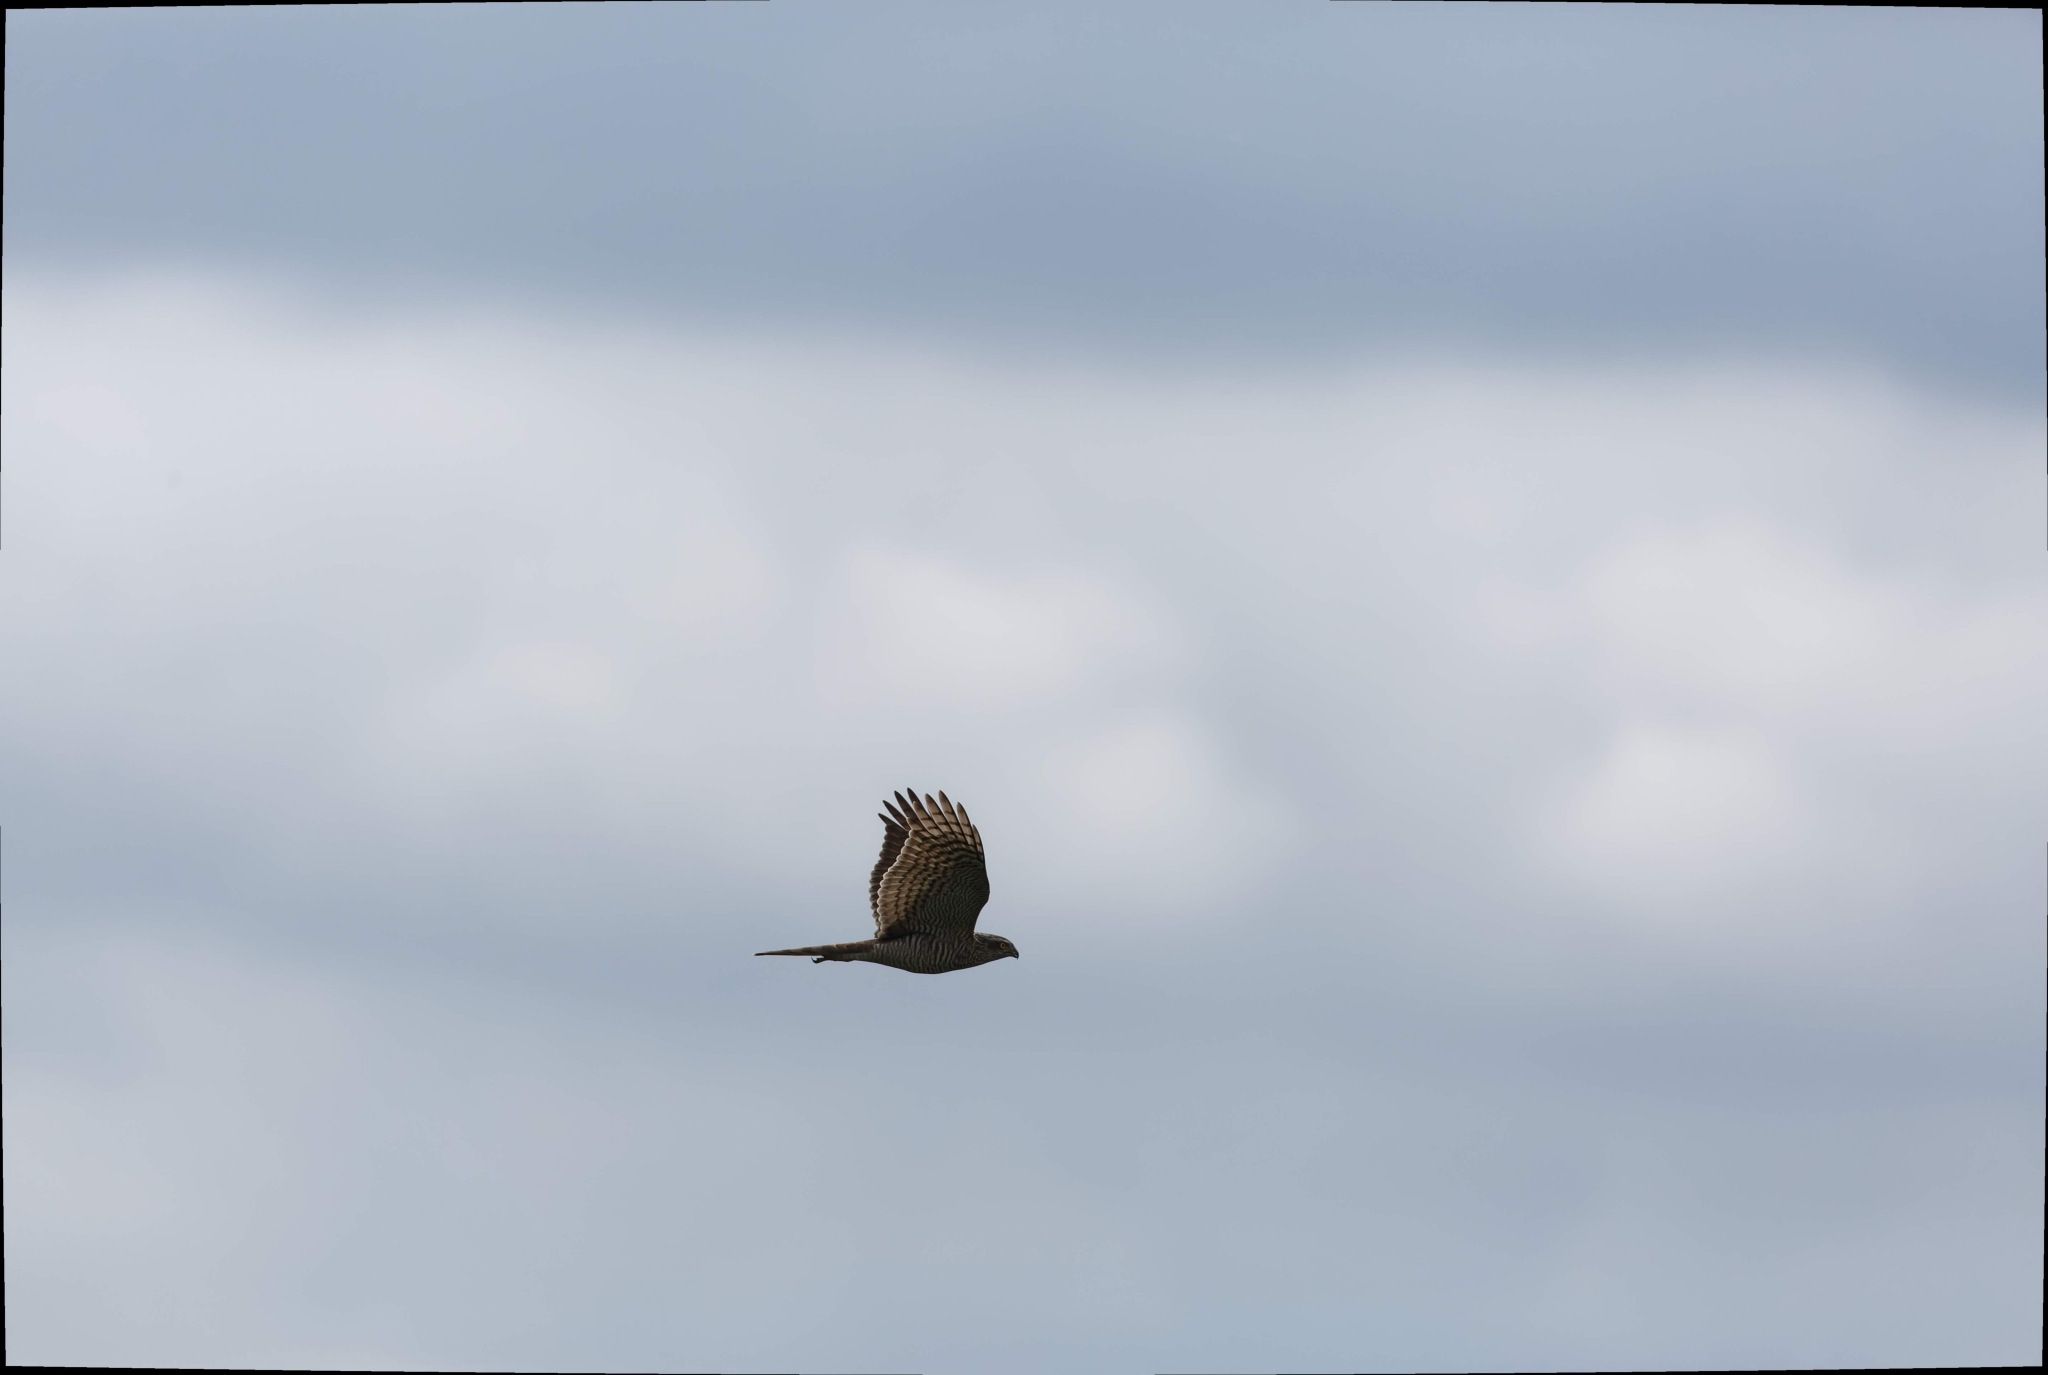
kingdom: Animalia
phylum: Chordata
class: Aves
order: Accipitriformes
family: Accipitridae
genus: Accipiter
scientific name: Accipiter nisus
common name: Eurasian sparrowhawk
